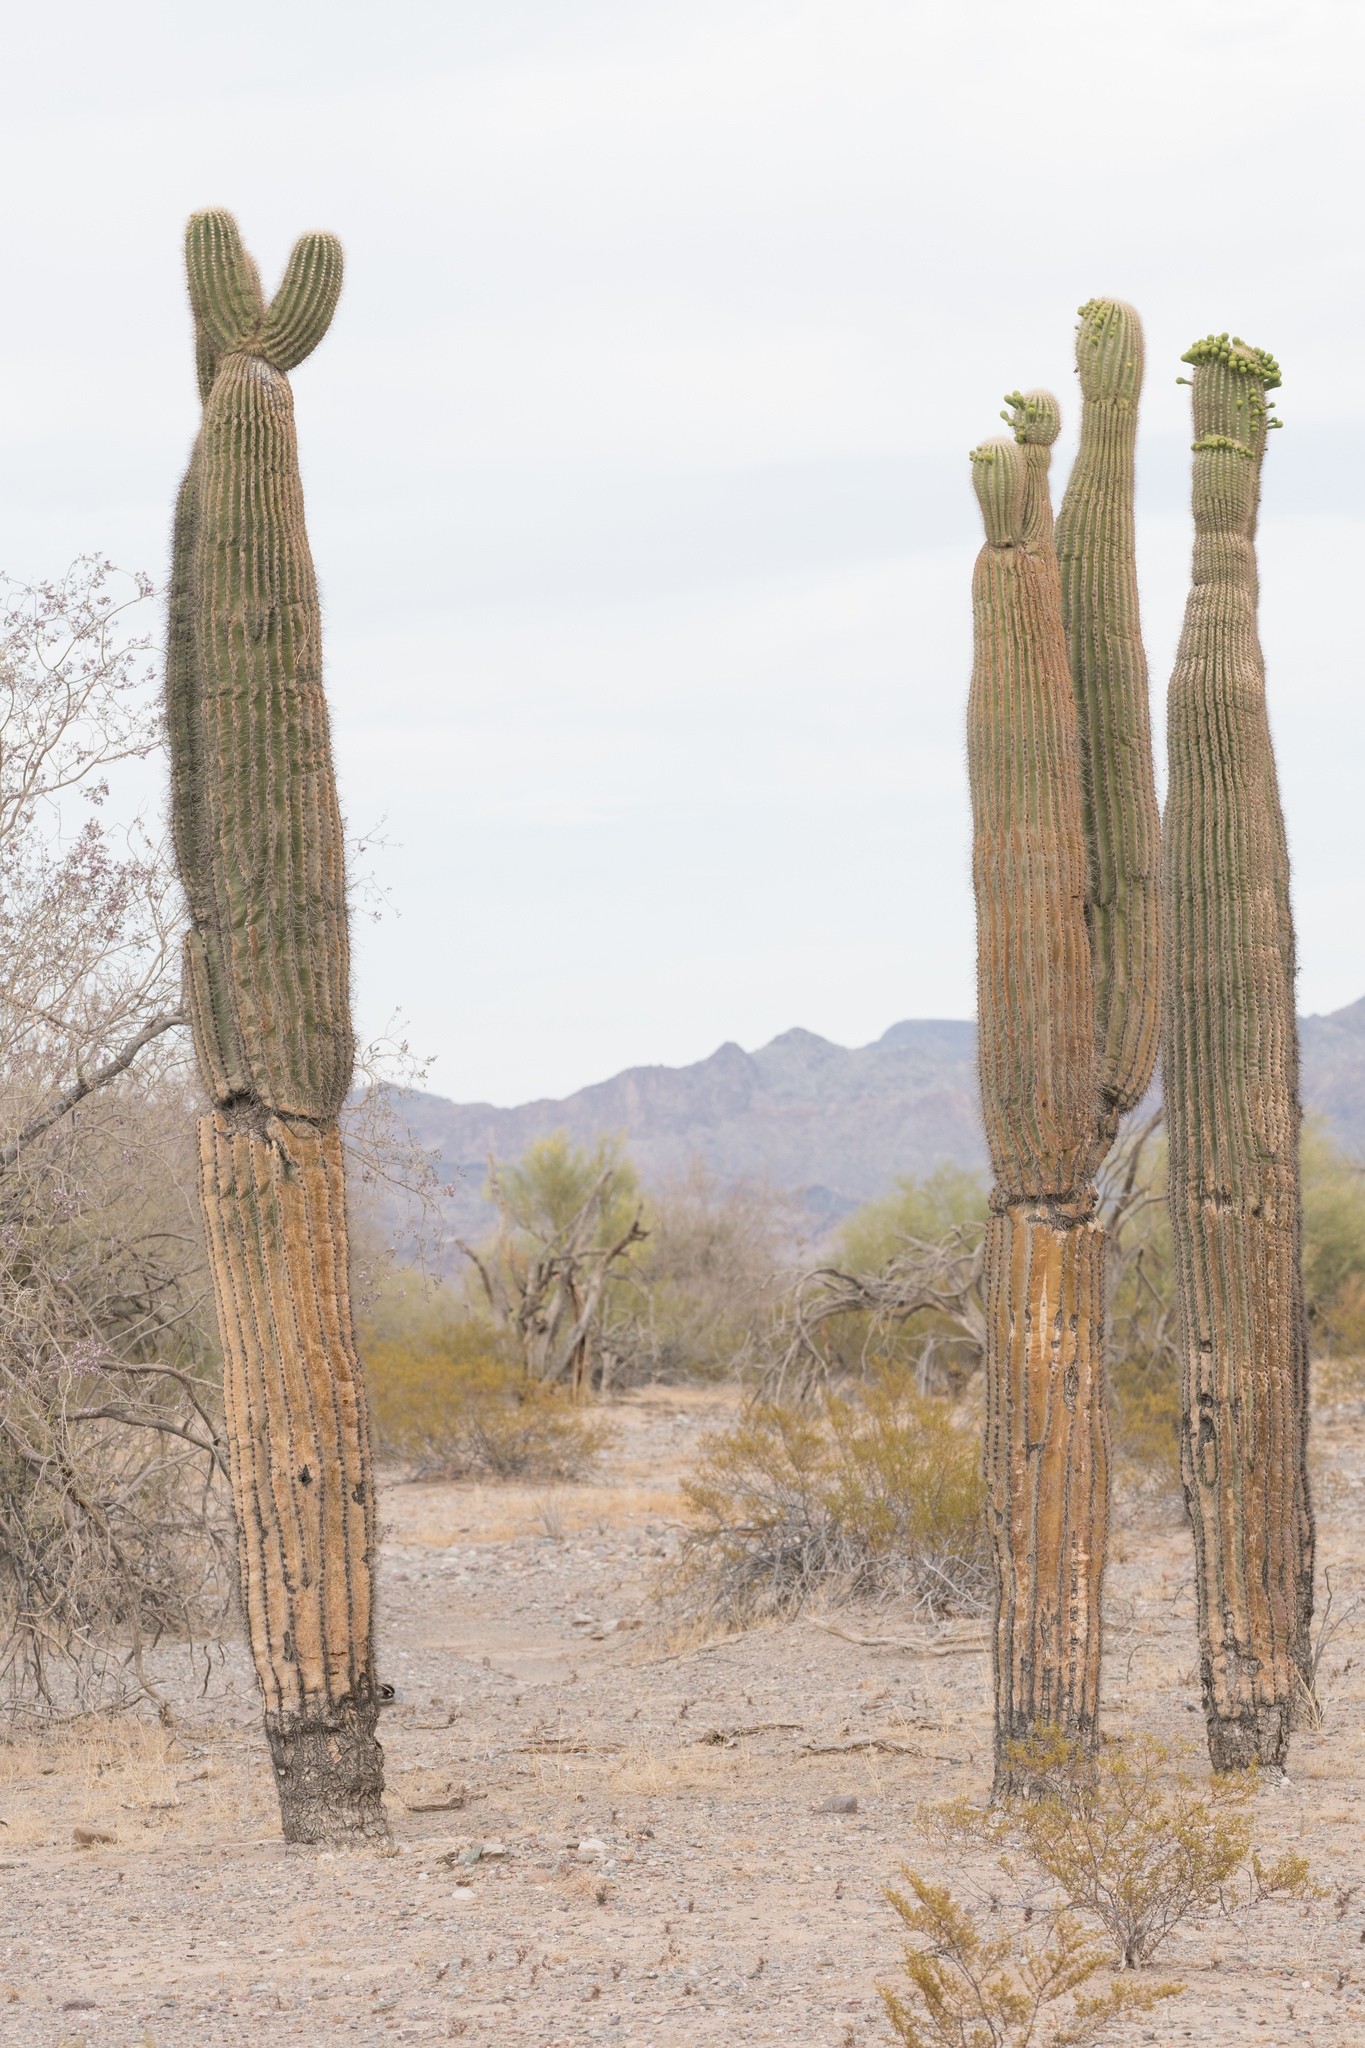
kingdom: Plantae
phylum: Tracheophyta
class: Magnoliopsida
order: Caryophyllales
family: Cactaceae
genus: Carnegiea
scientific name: Carnegiea gigantea
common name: Saguaro
